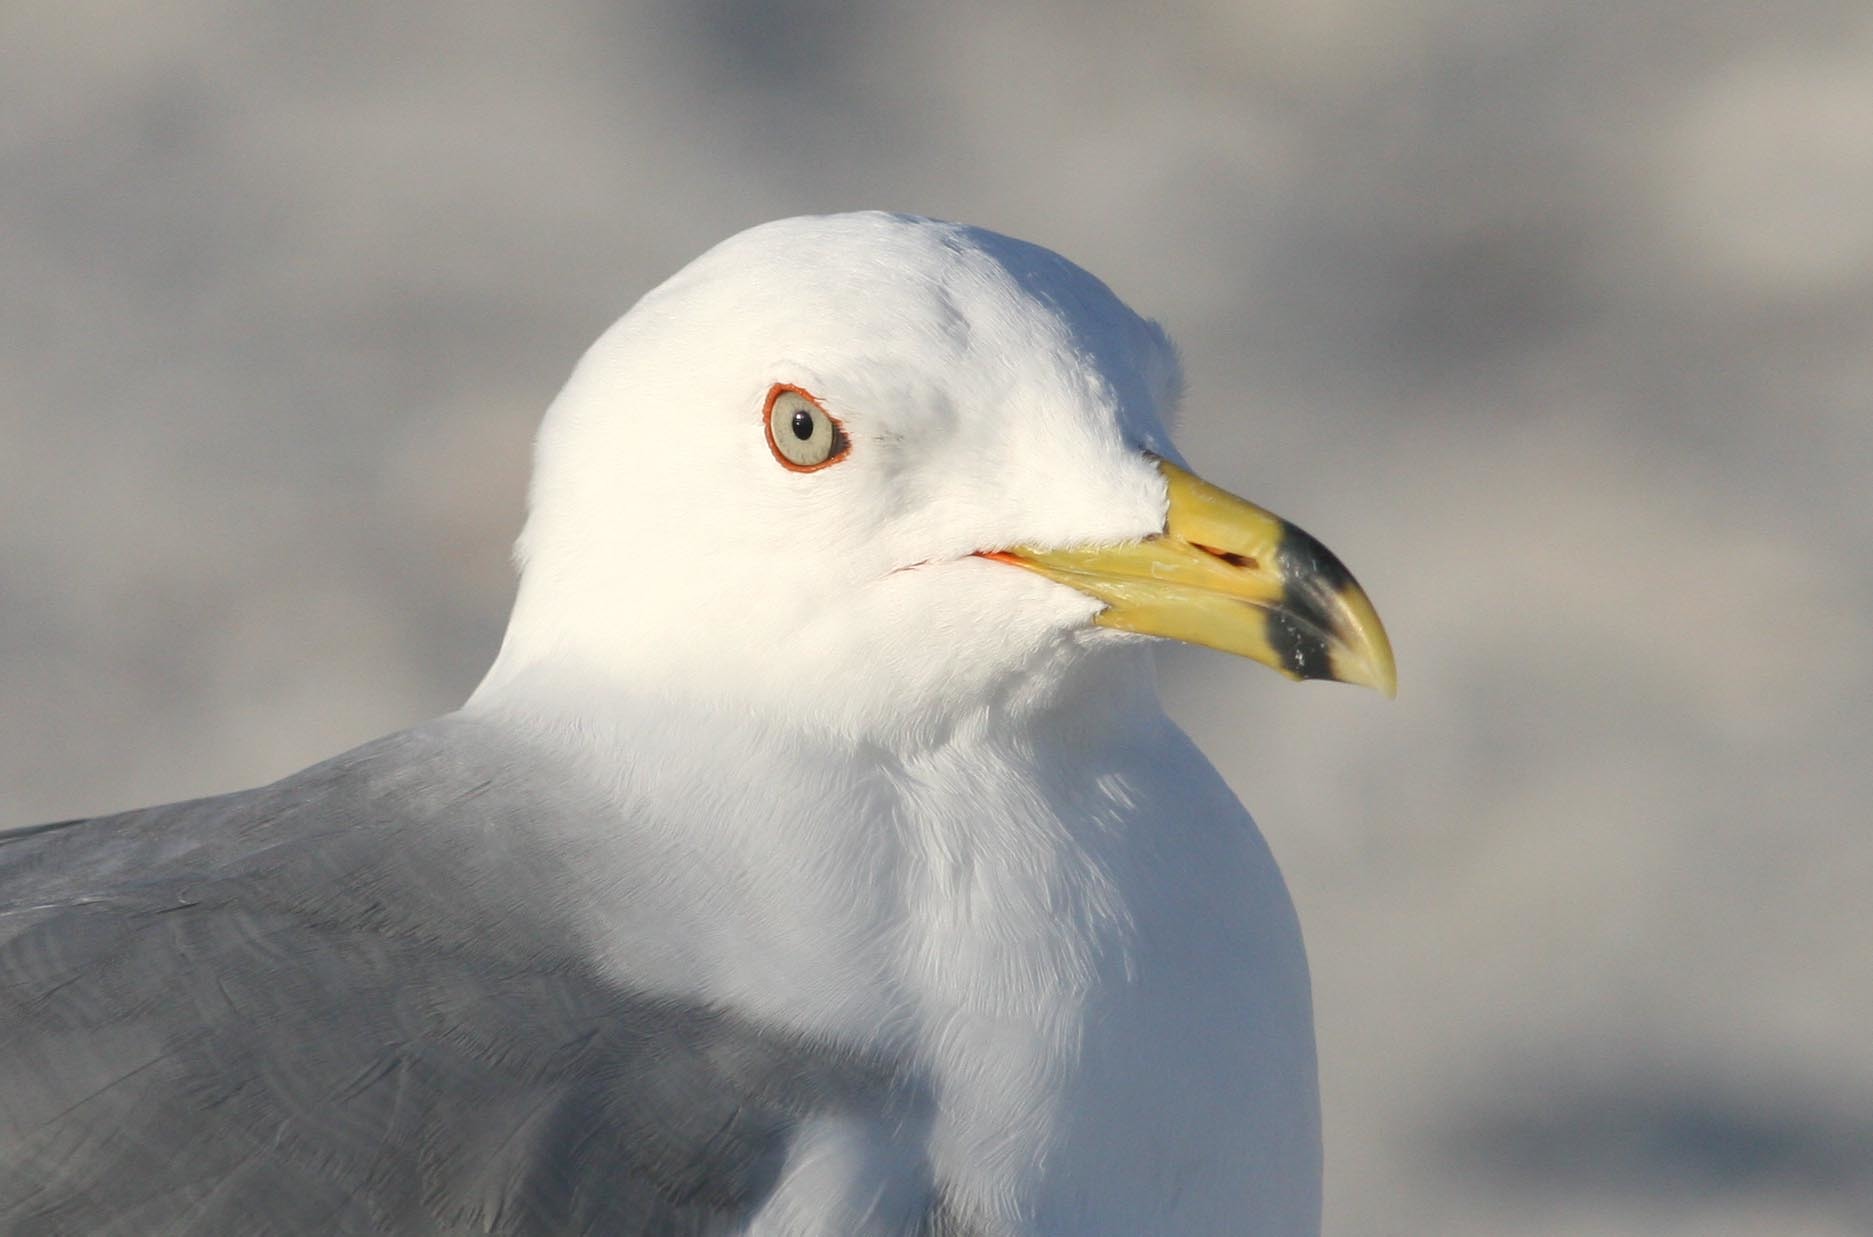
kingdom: Animalia
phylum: Chordata
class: Aves
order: Charadriiformes
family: Laridae
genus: Larus
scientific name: Larus delawarensis
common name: Ring-billed gull
